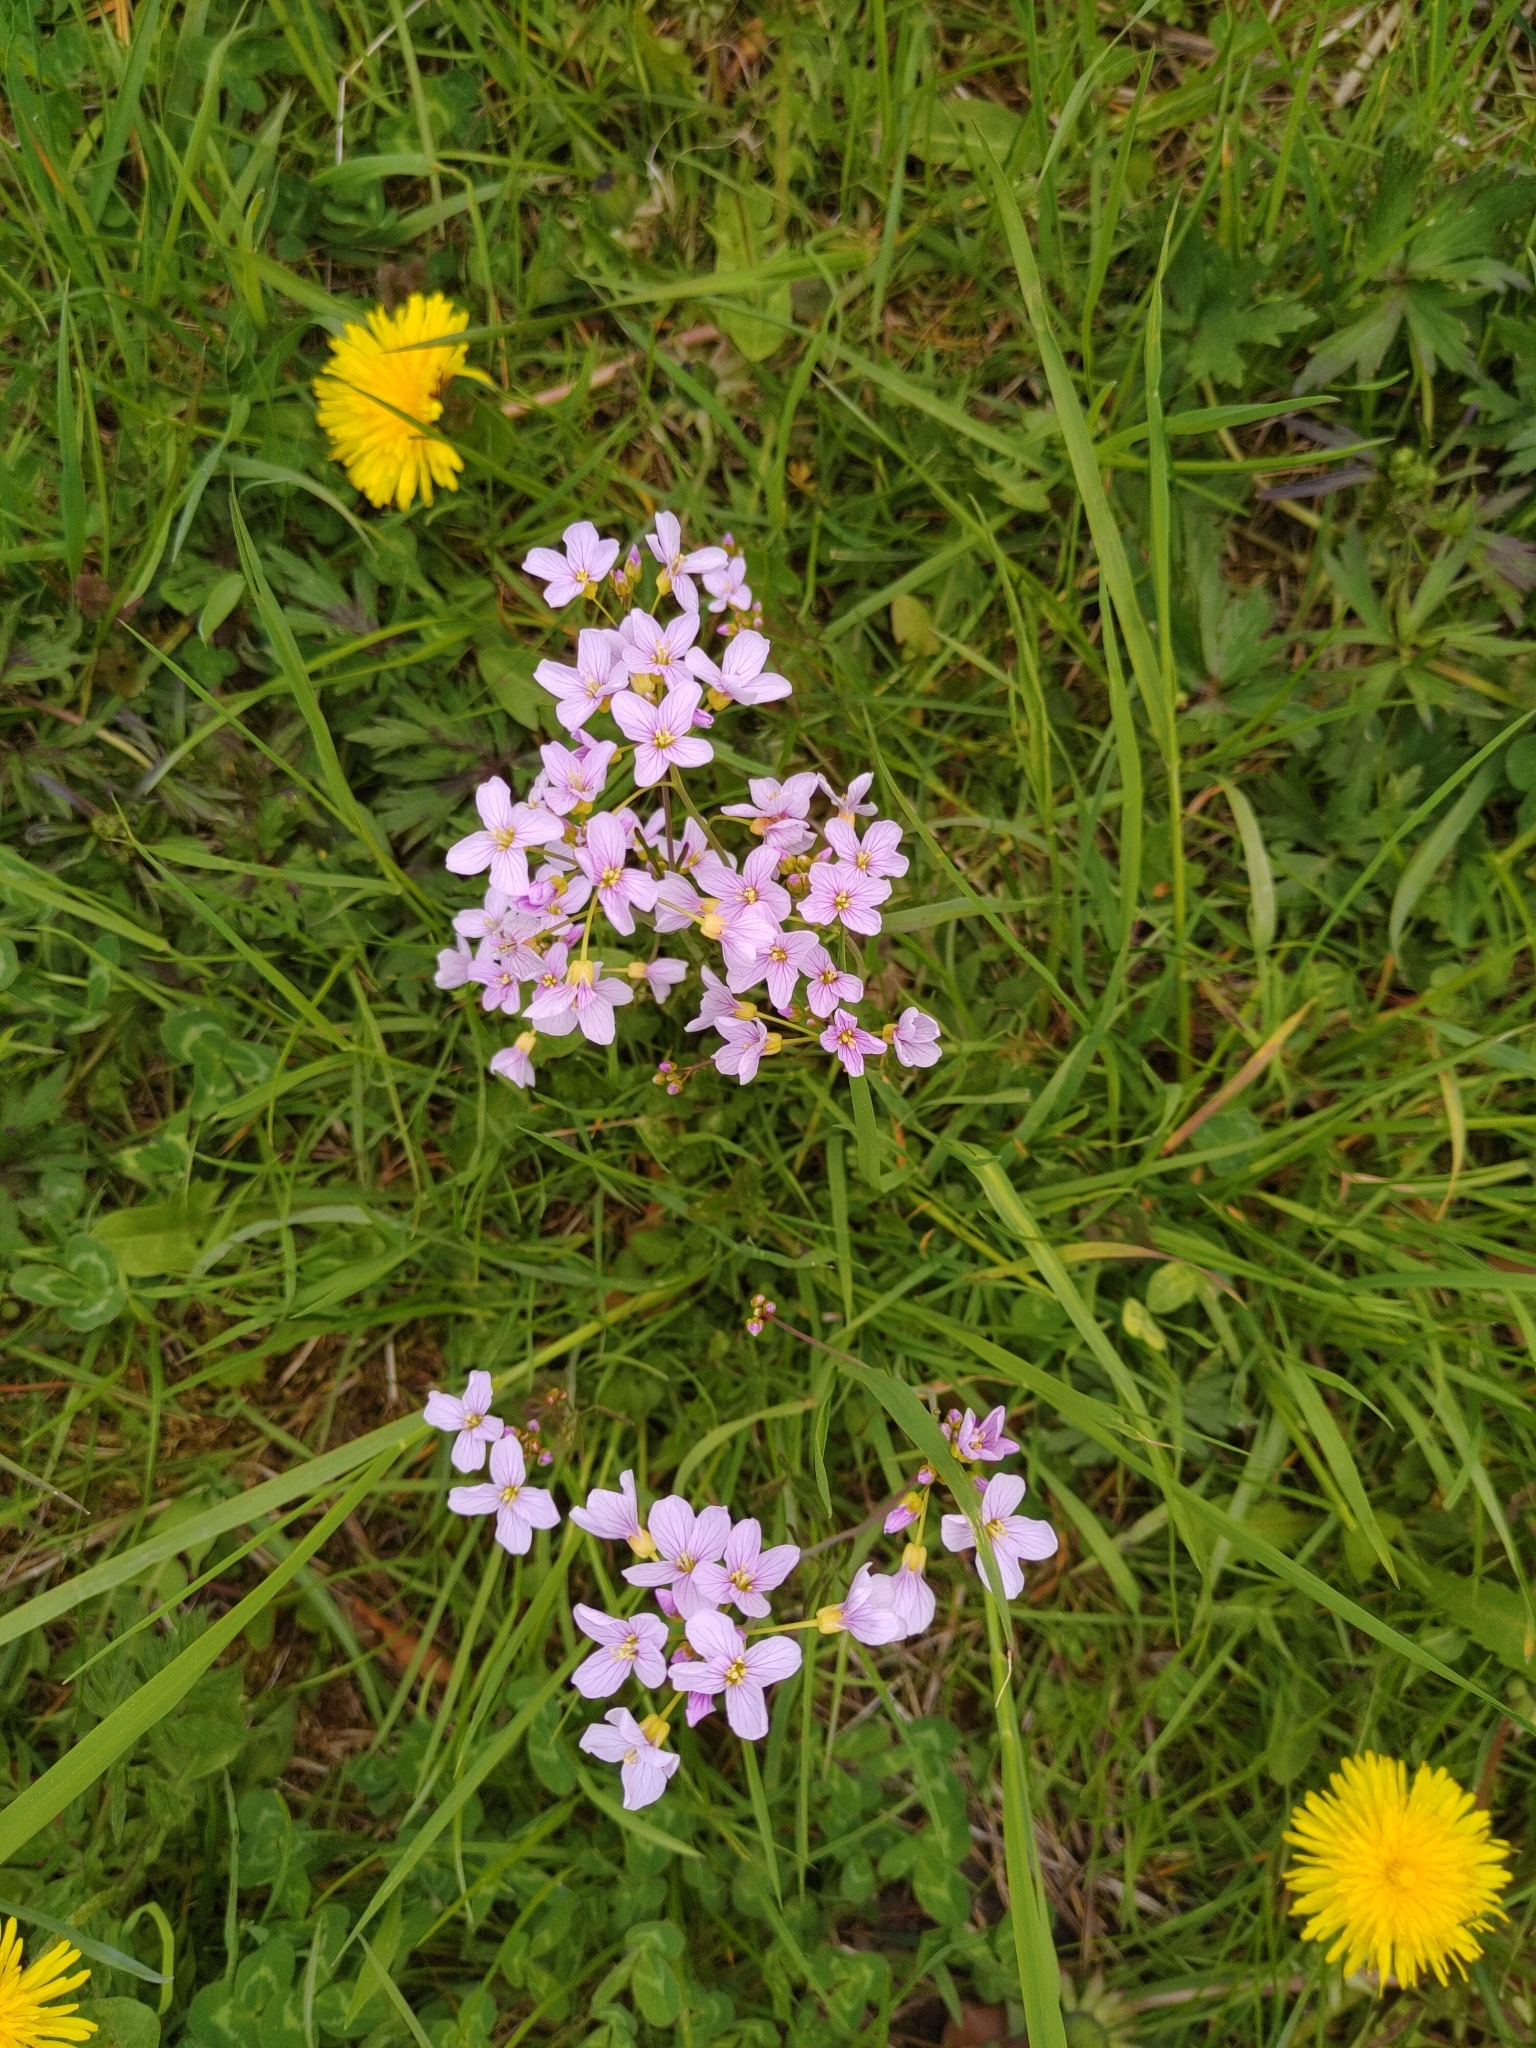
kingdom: Plantae
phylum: Tracheophyta
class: Magnoliopsida
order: Brassicales
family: Brassicaceae
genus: Cardamine
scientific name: Cardamine pratensis
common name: Cuckoo flower
